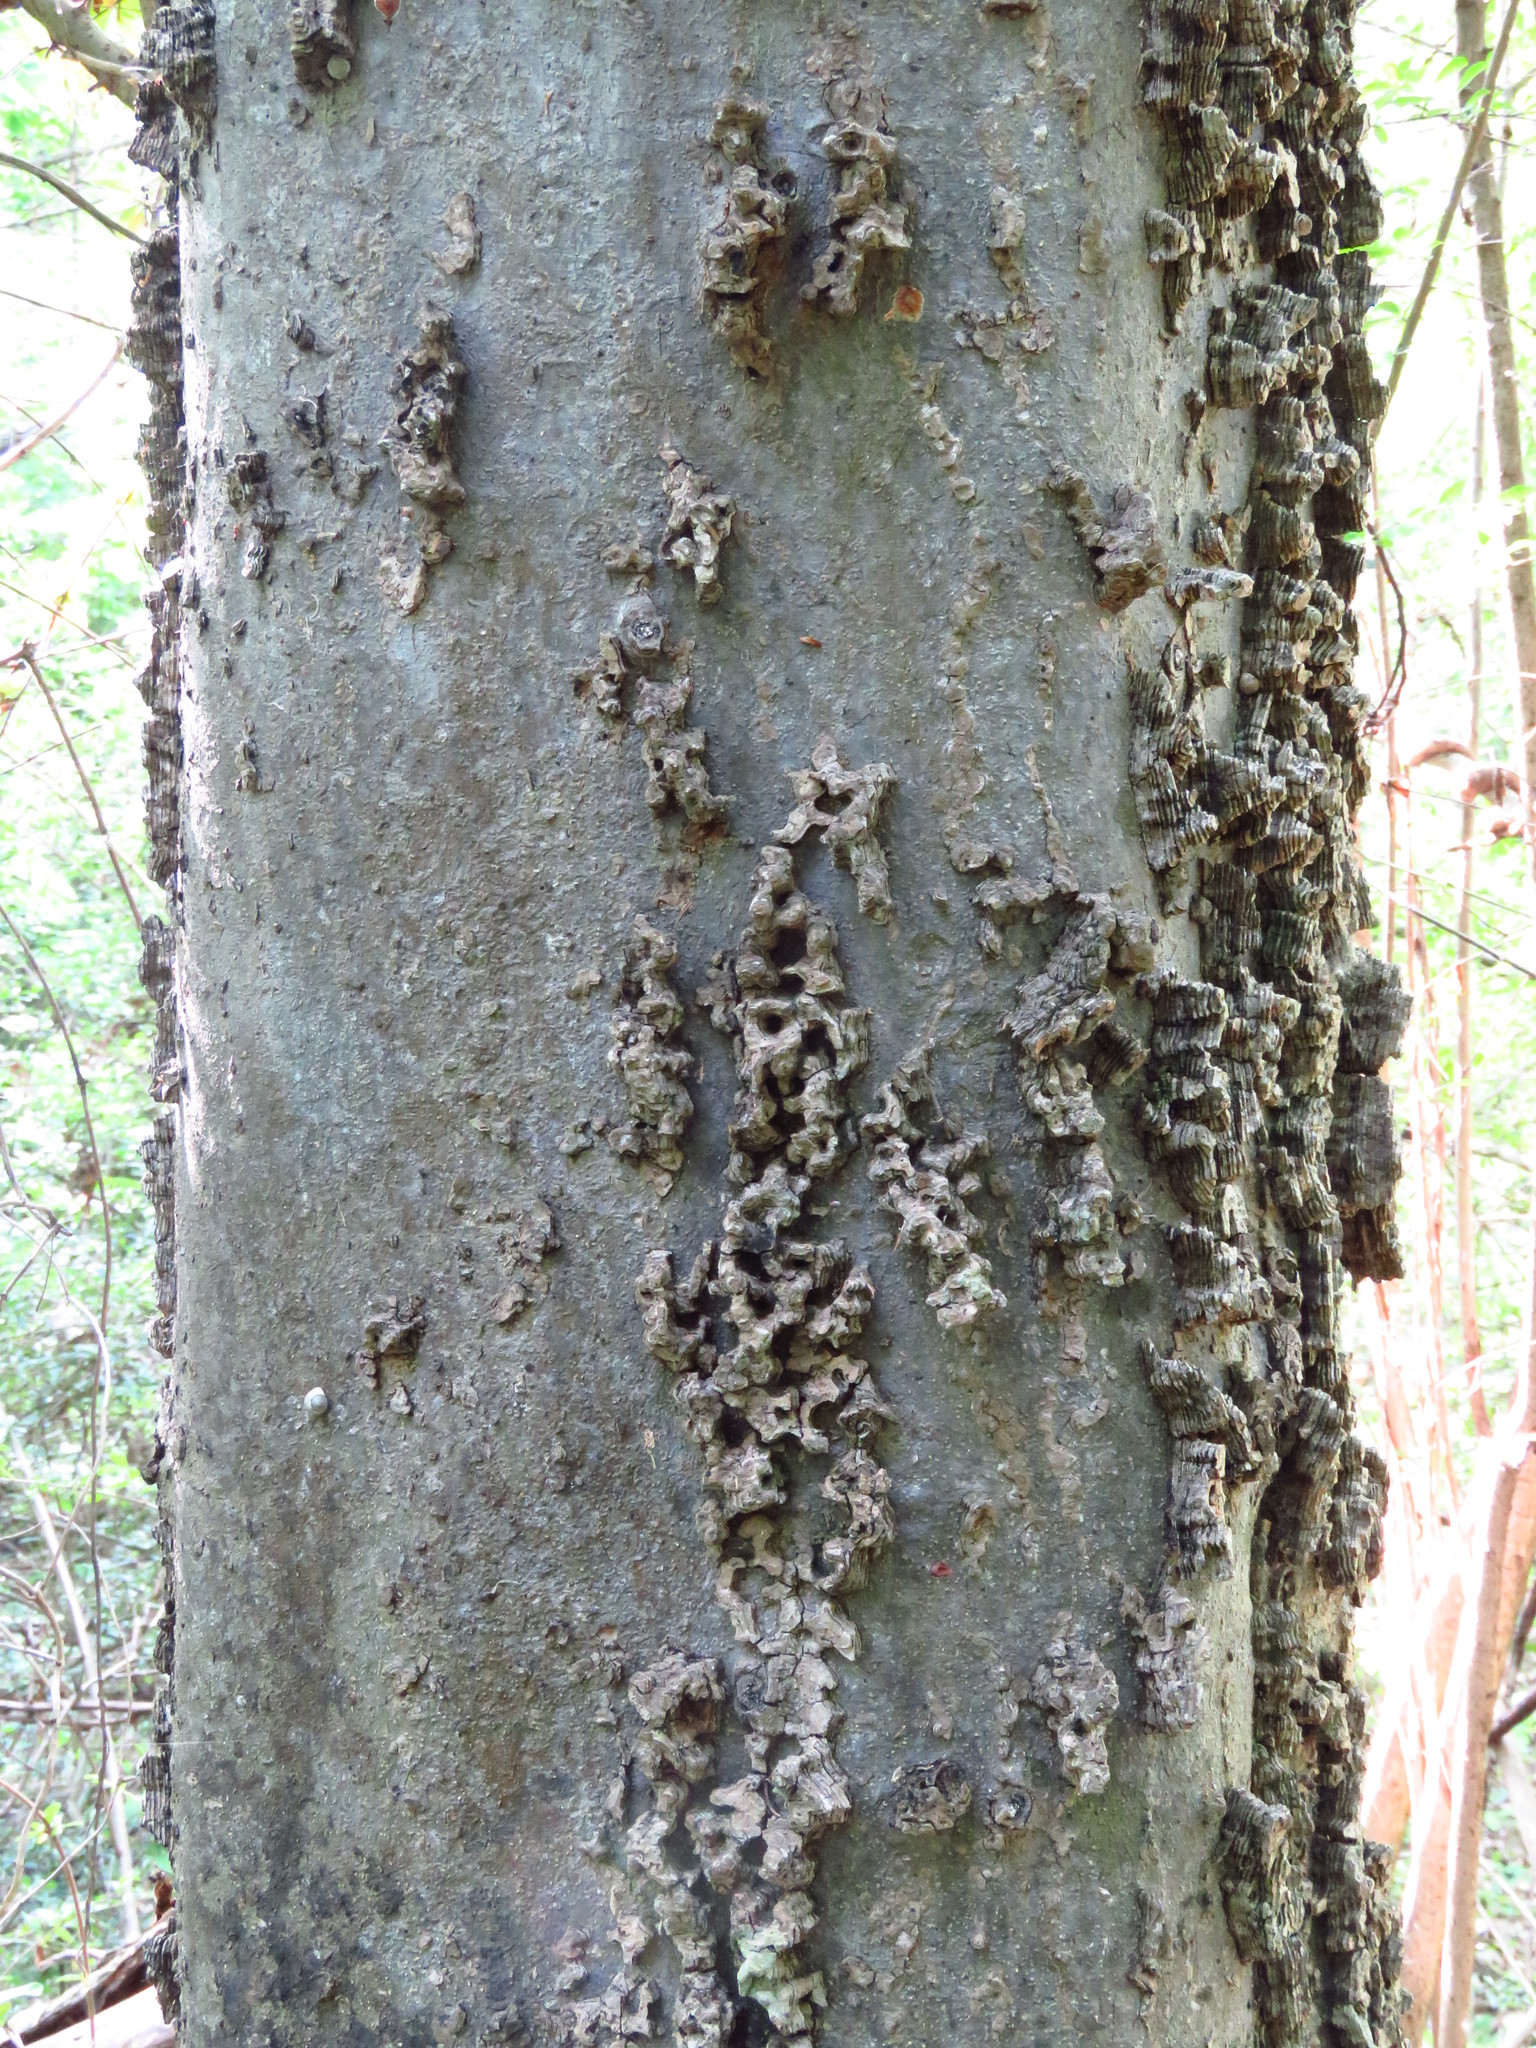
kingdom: Plantae
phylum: Tracheophyta
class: Magnoliopsida
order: Rosales
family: Cannabaceae
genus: Celtis
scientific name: Celtis laevigata
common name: Sugarberry
